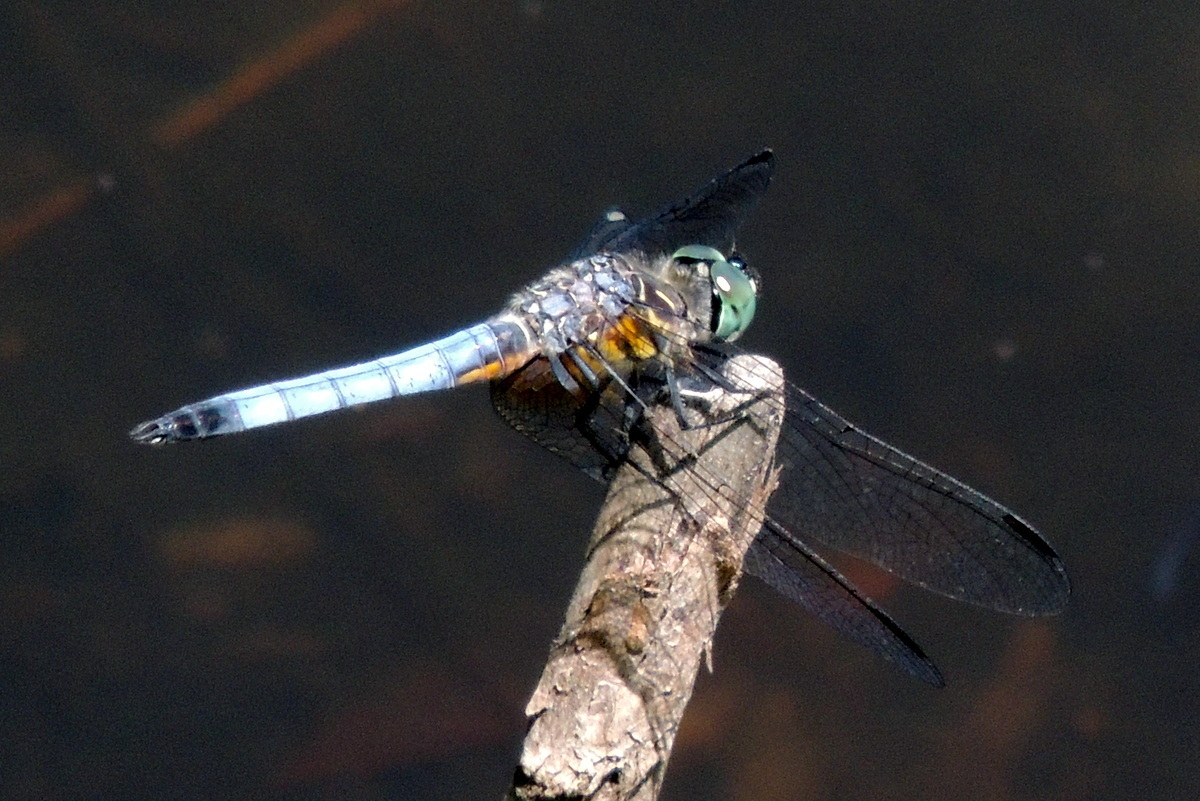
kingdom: Animalia
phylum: Arthropoda
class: Insecta
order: Odonata
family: Libellulidae
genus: Pachydiplax
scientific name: Pachydiplax longipennis
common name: Blue dasher
